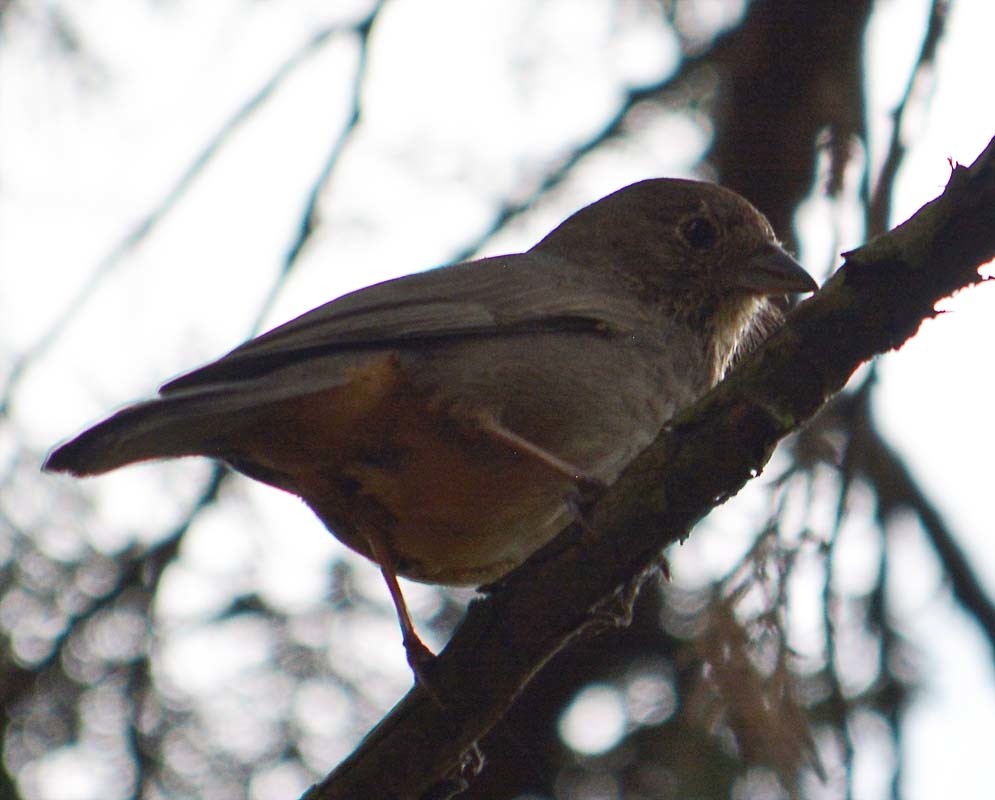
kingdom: Animalia
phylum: Chordata
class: Aves
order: Passeriformes
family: Passerellidae
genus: Melozone
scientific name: Melozone fusca
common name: Canyon towhee
